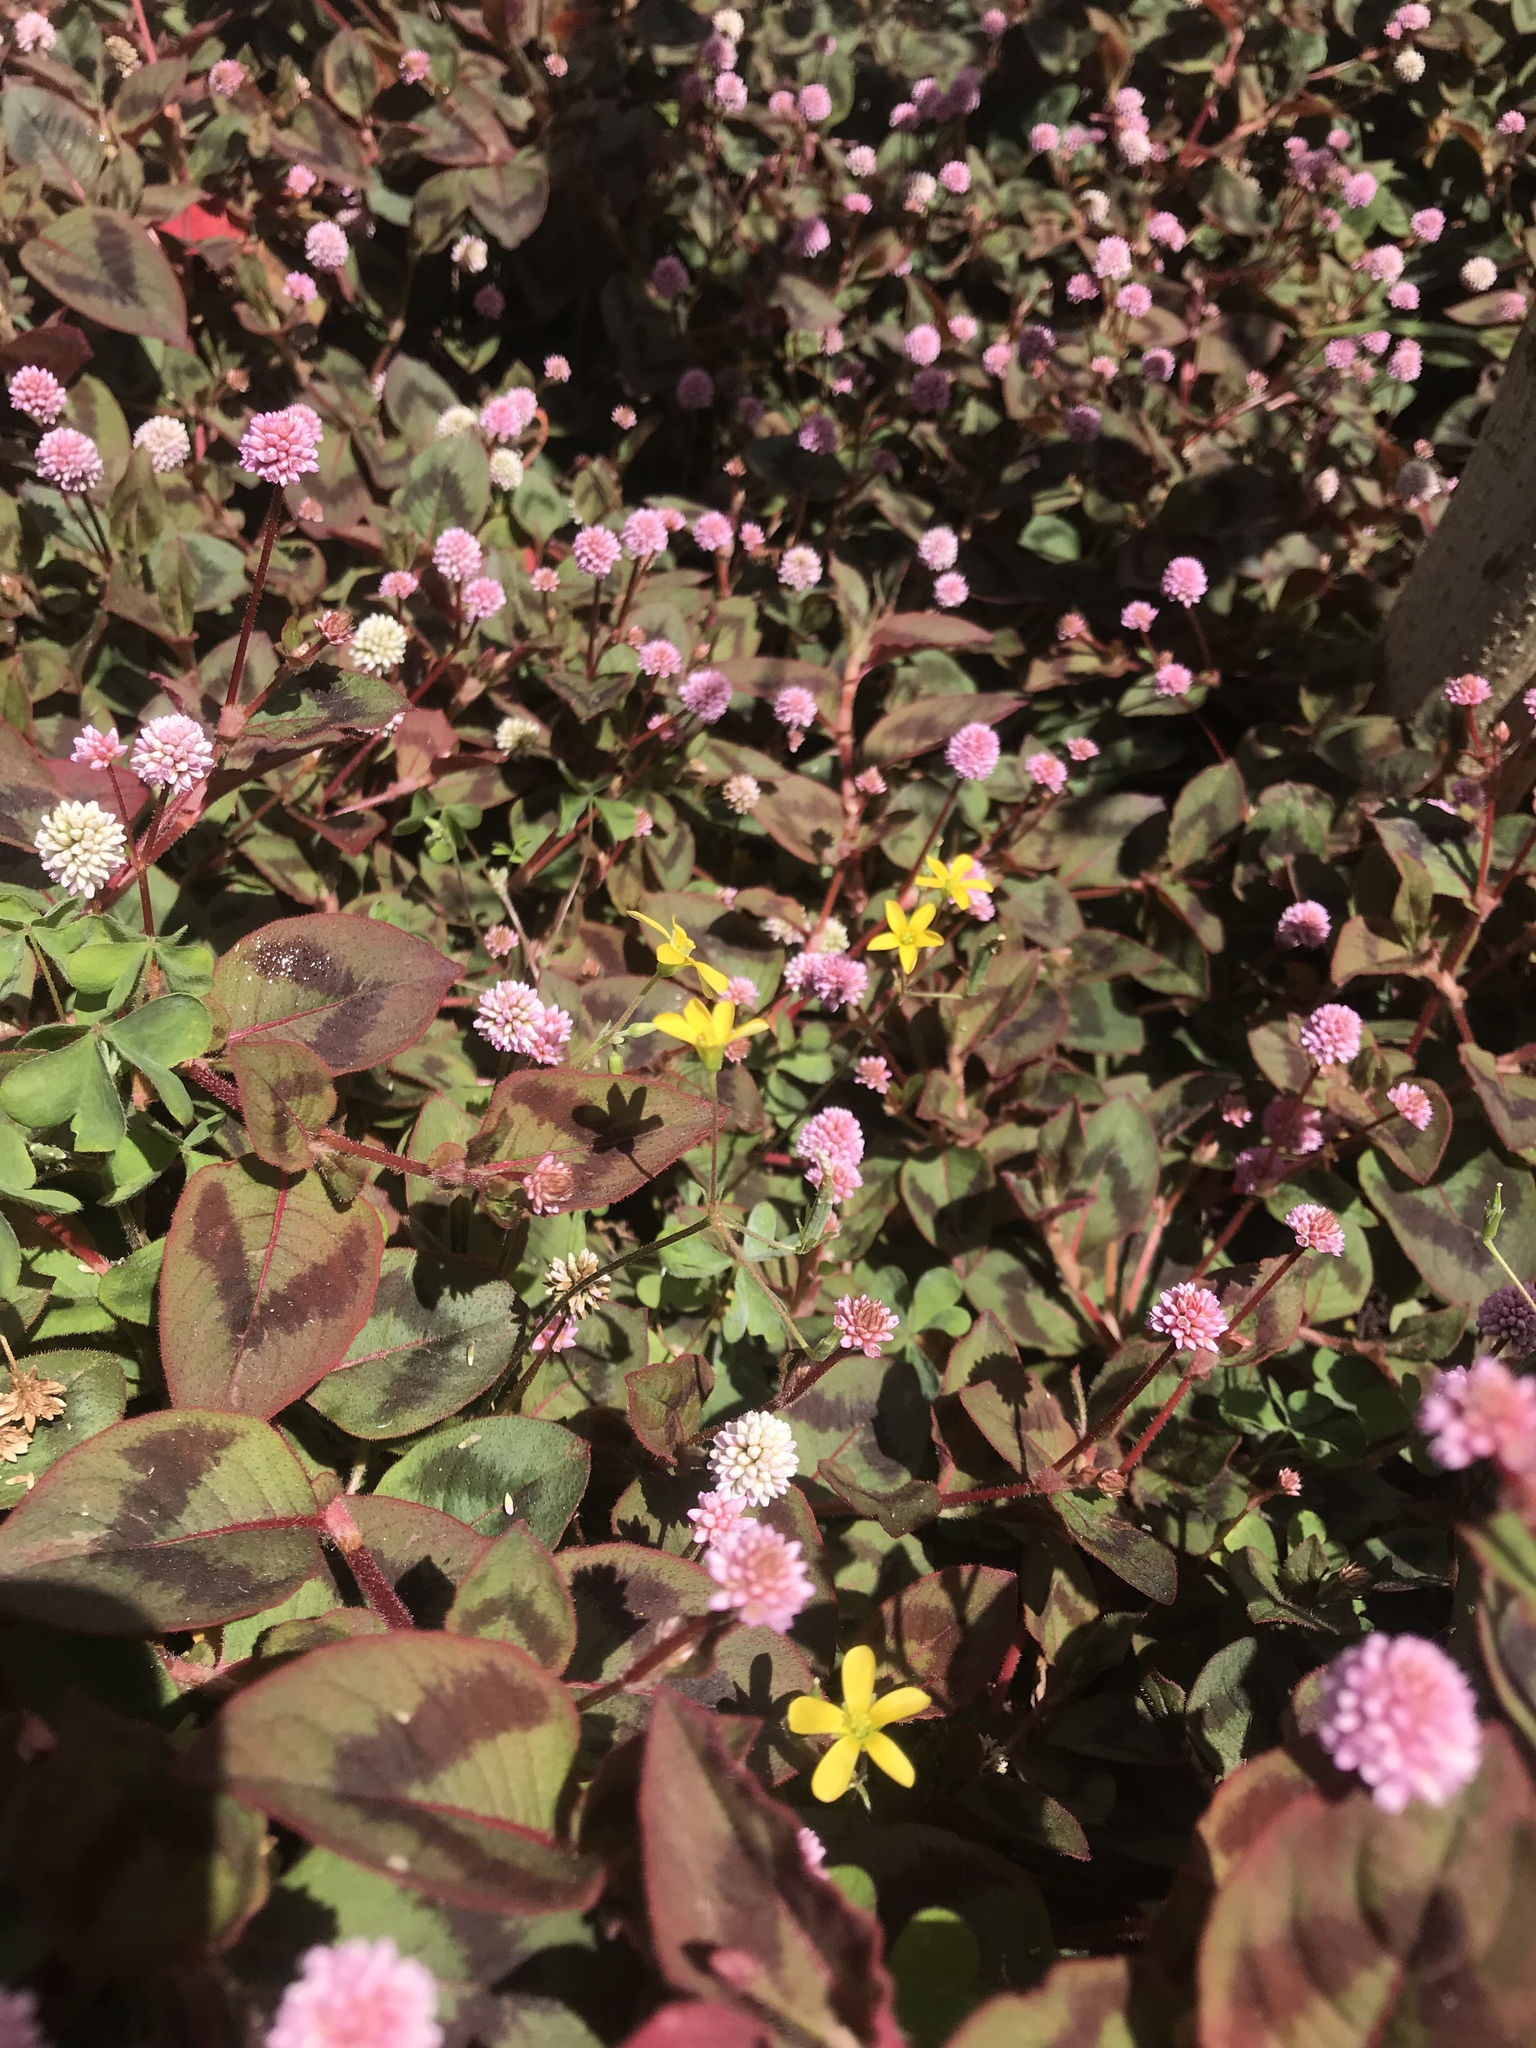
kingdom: Plantae
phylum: Tracheophyta
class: Magnoliopsida
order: Oxalidales
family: Oxalidaceae
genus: Oxalis
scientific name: Oxalis corniculata
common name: Procumbent yellow-sorrel
